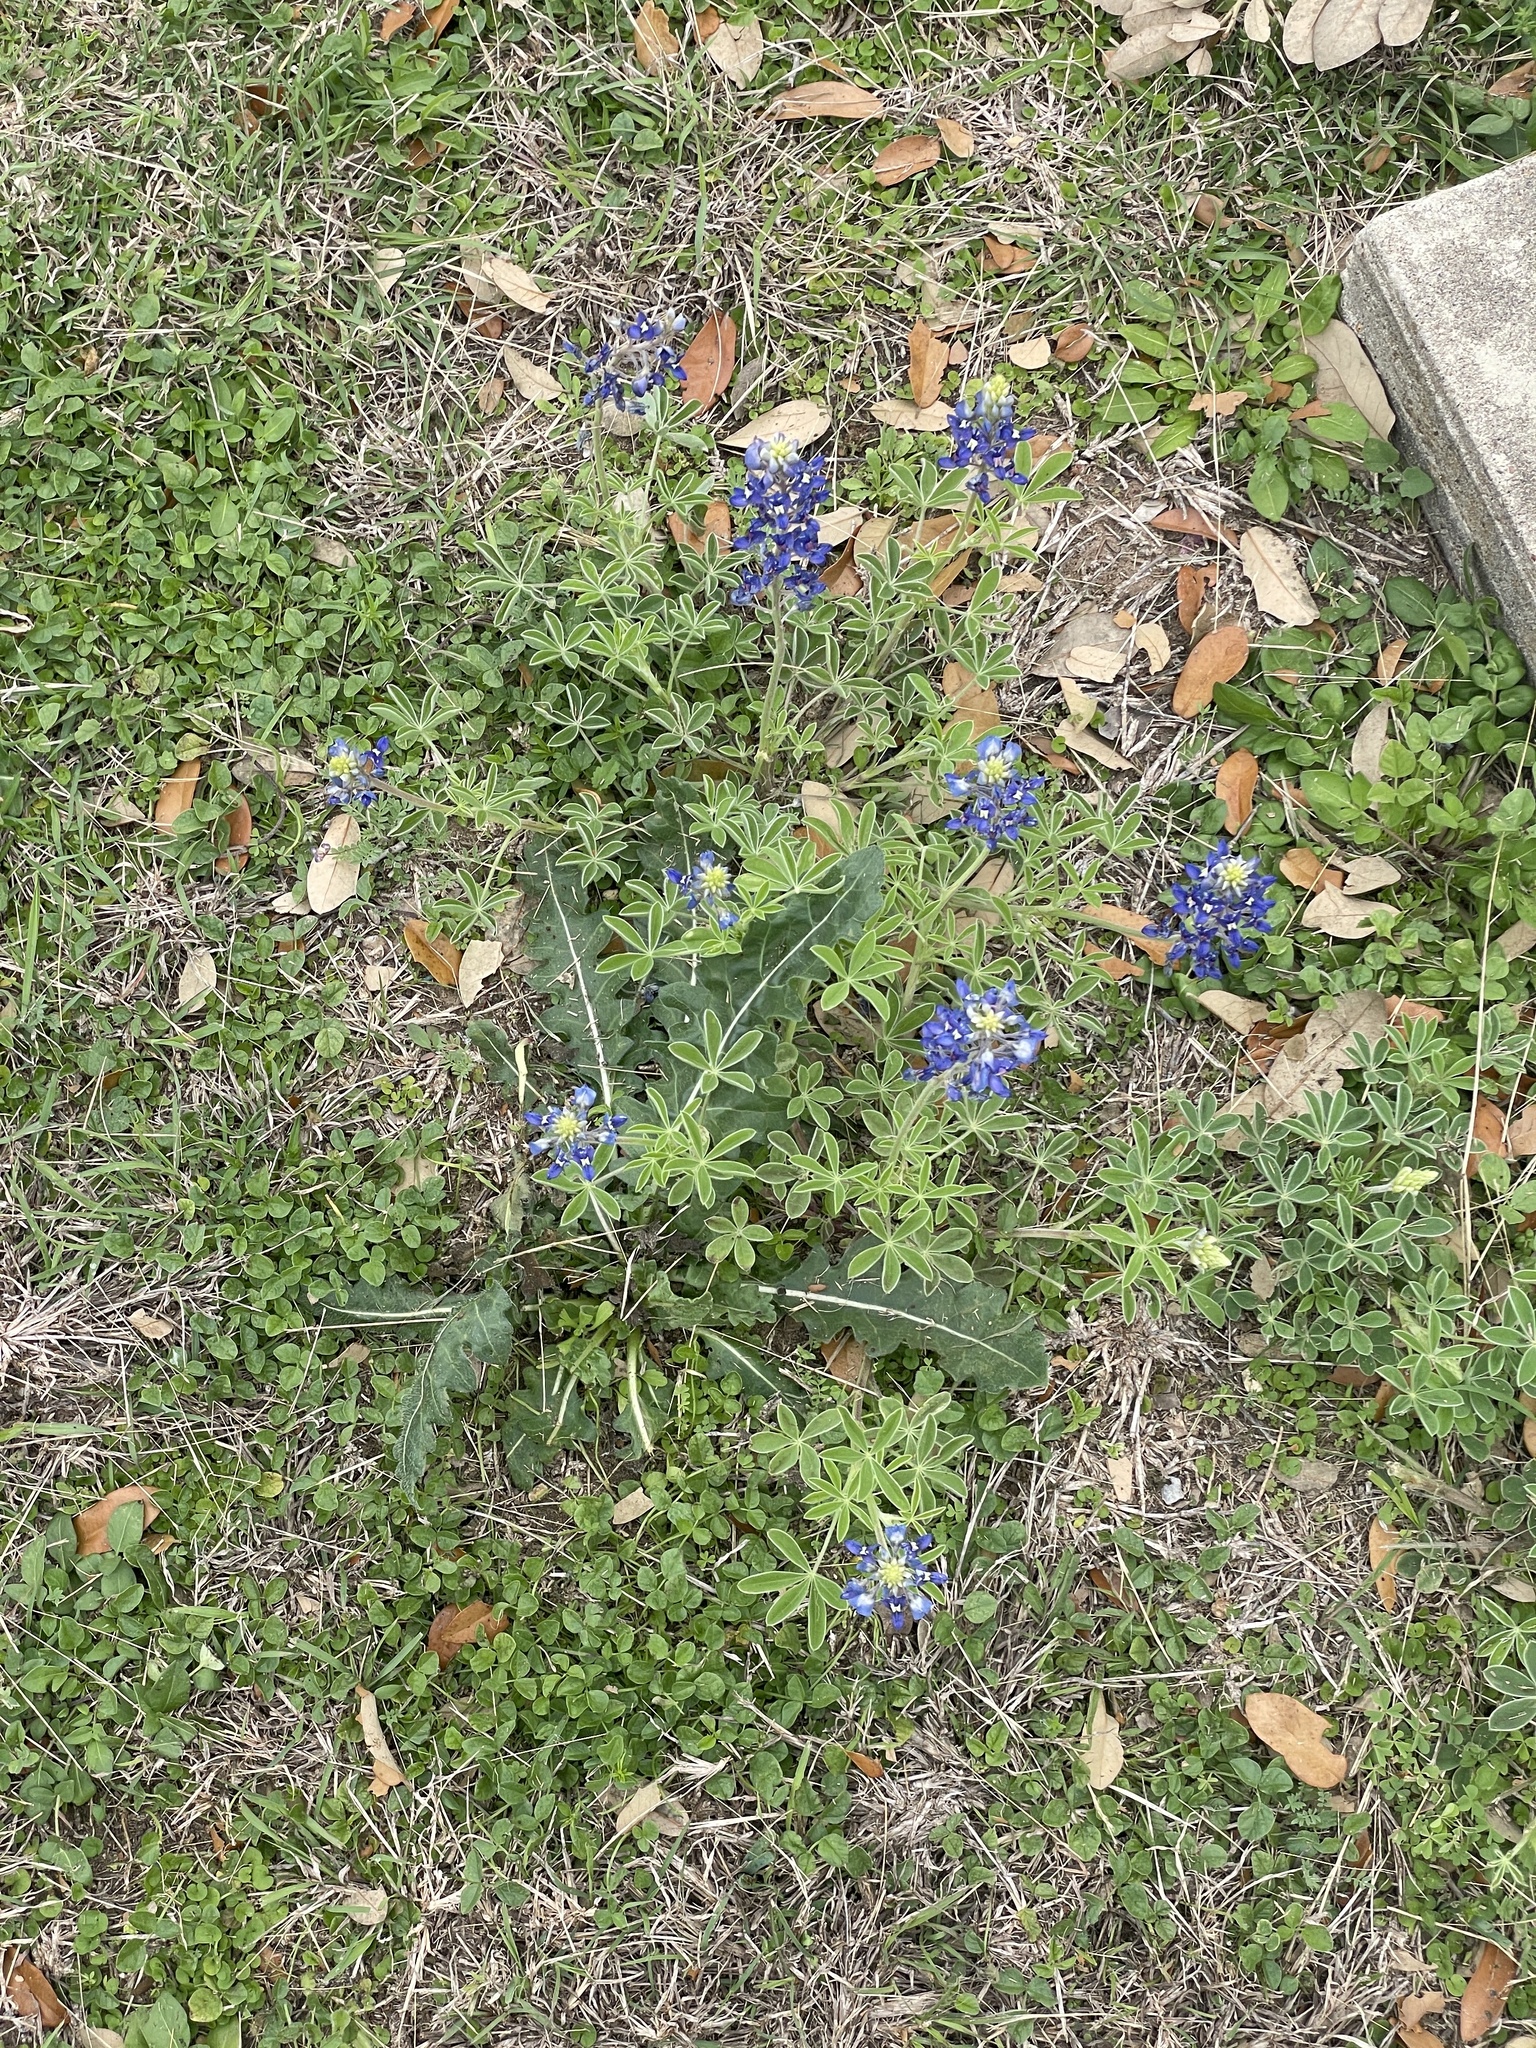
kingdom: Plantae
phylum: Tracheophyta
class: Magnoliopsida
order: Fabales
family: Fabaceae
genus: Lupinus
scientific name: Lupinus texensis
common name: Texas bluebonnet
